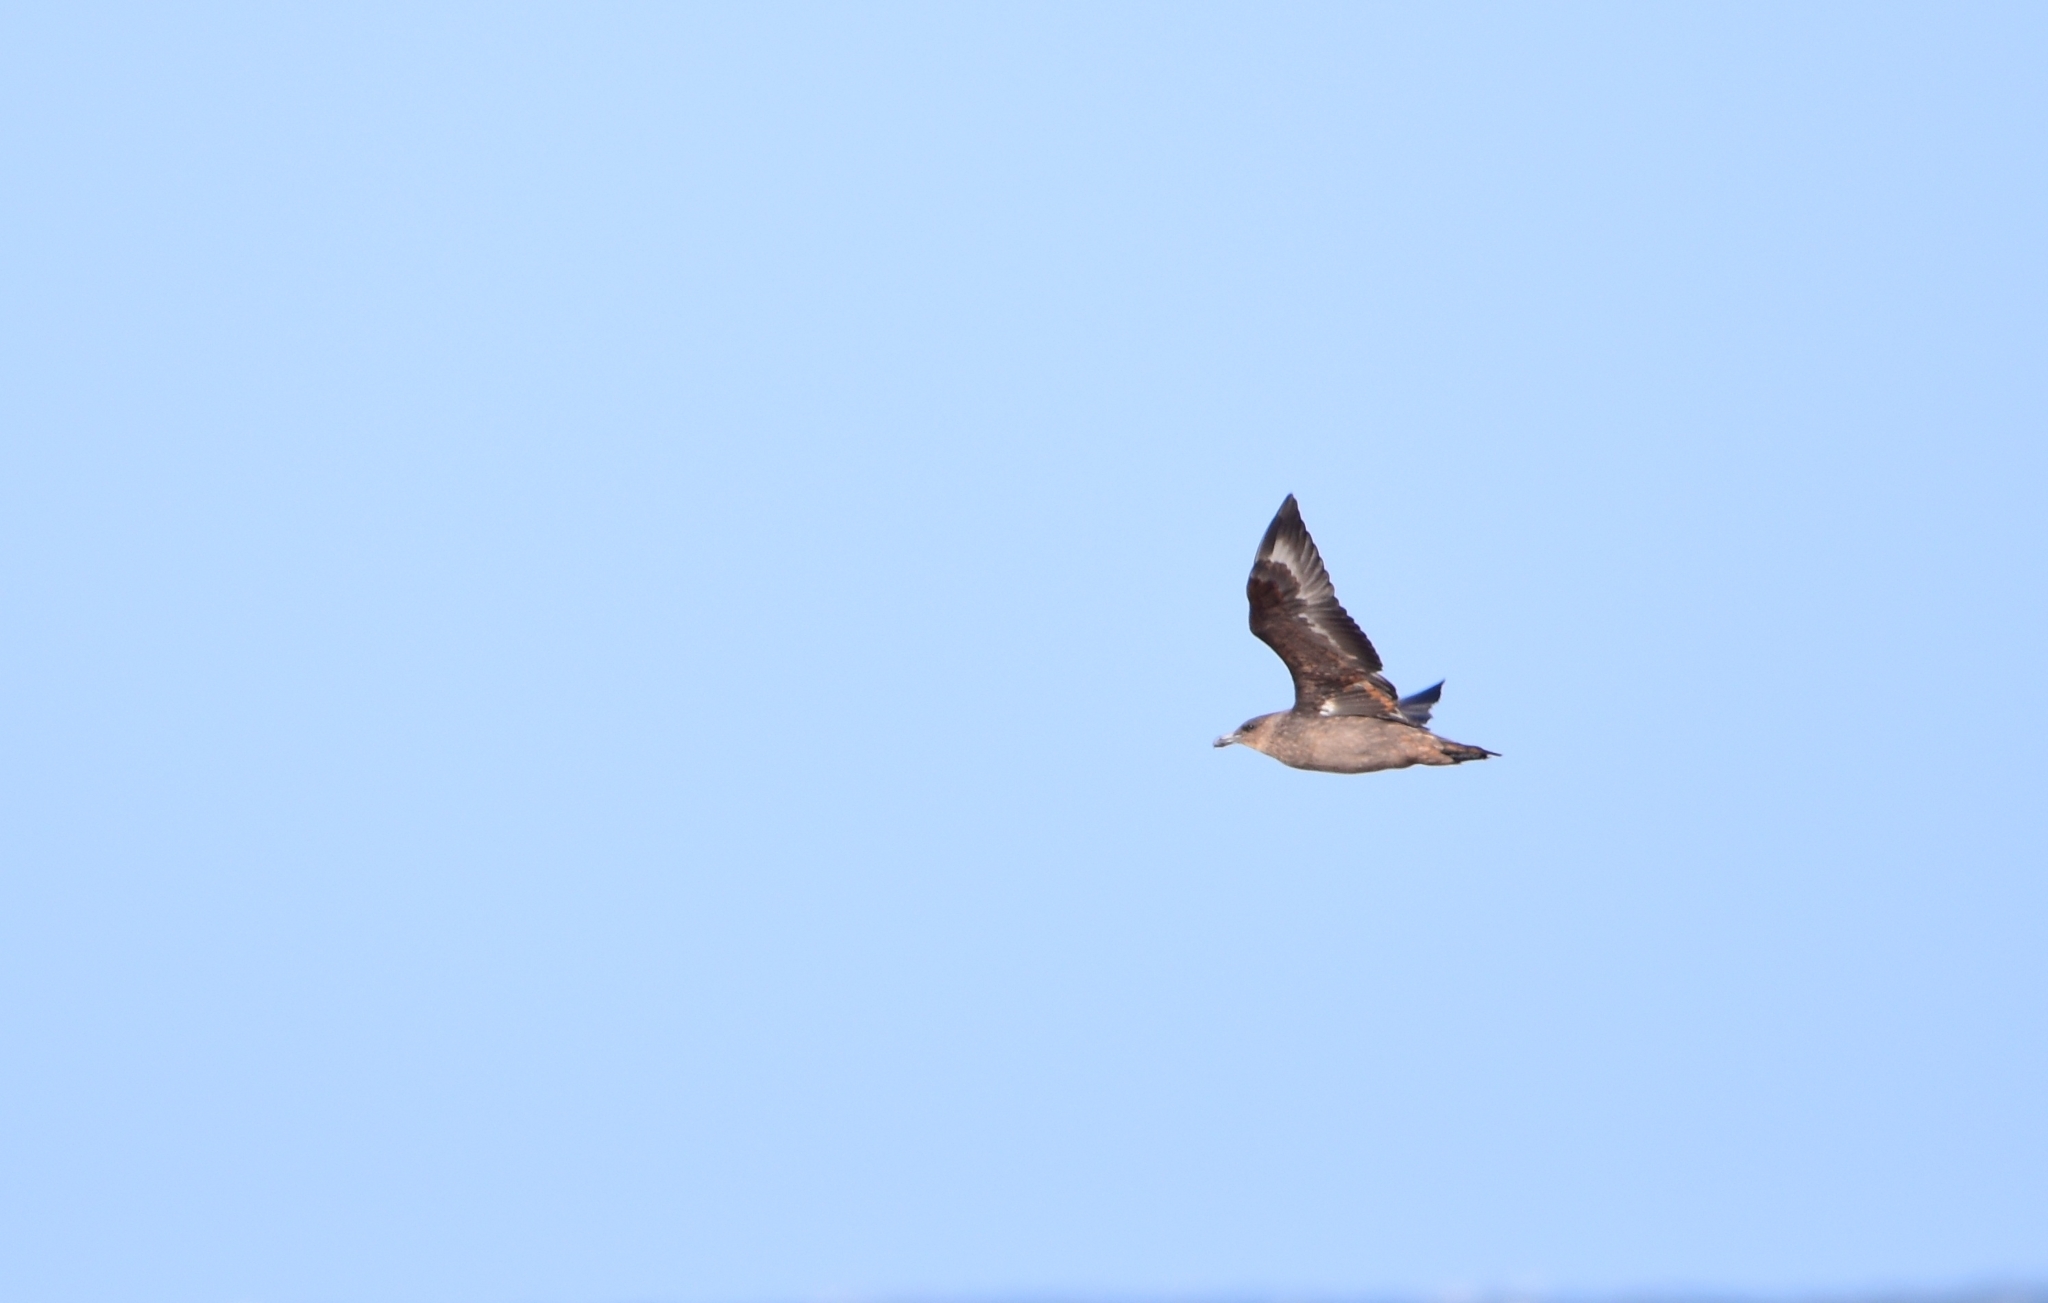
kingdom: Animalia
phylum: Chordata
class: Aves
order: Charadriiformes
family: Stercorariidae
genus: Stercorarius
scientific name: Stercorarius chilensis
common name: Chilean skua
